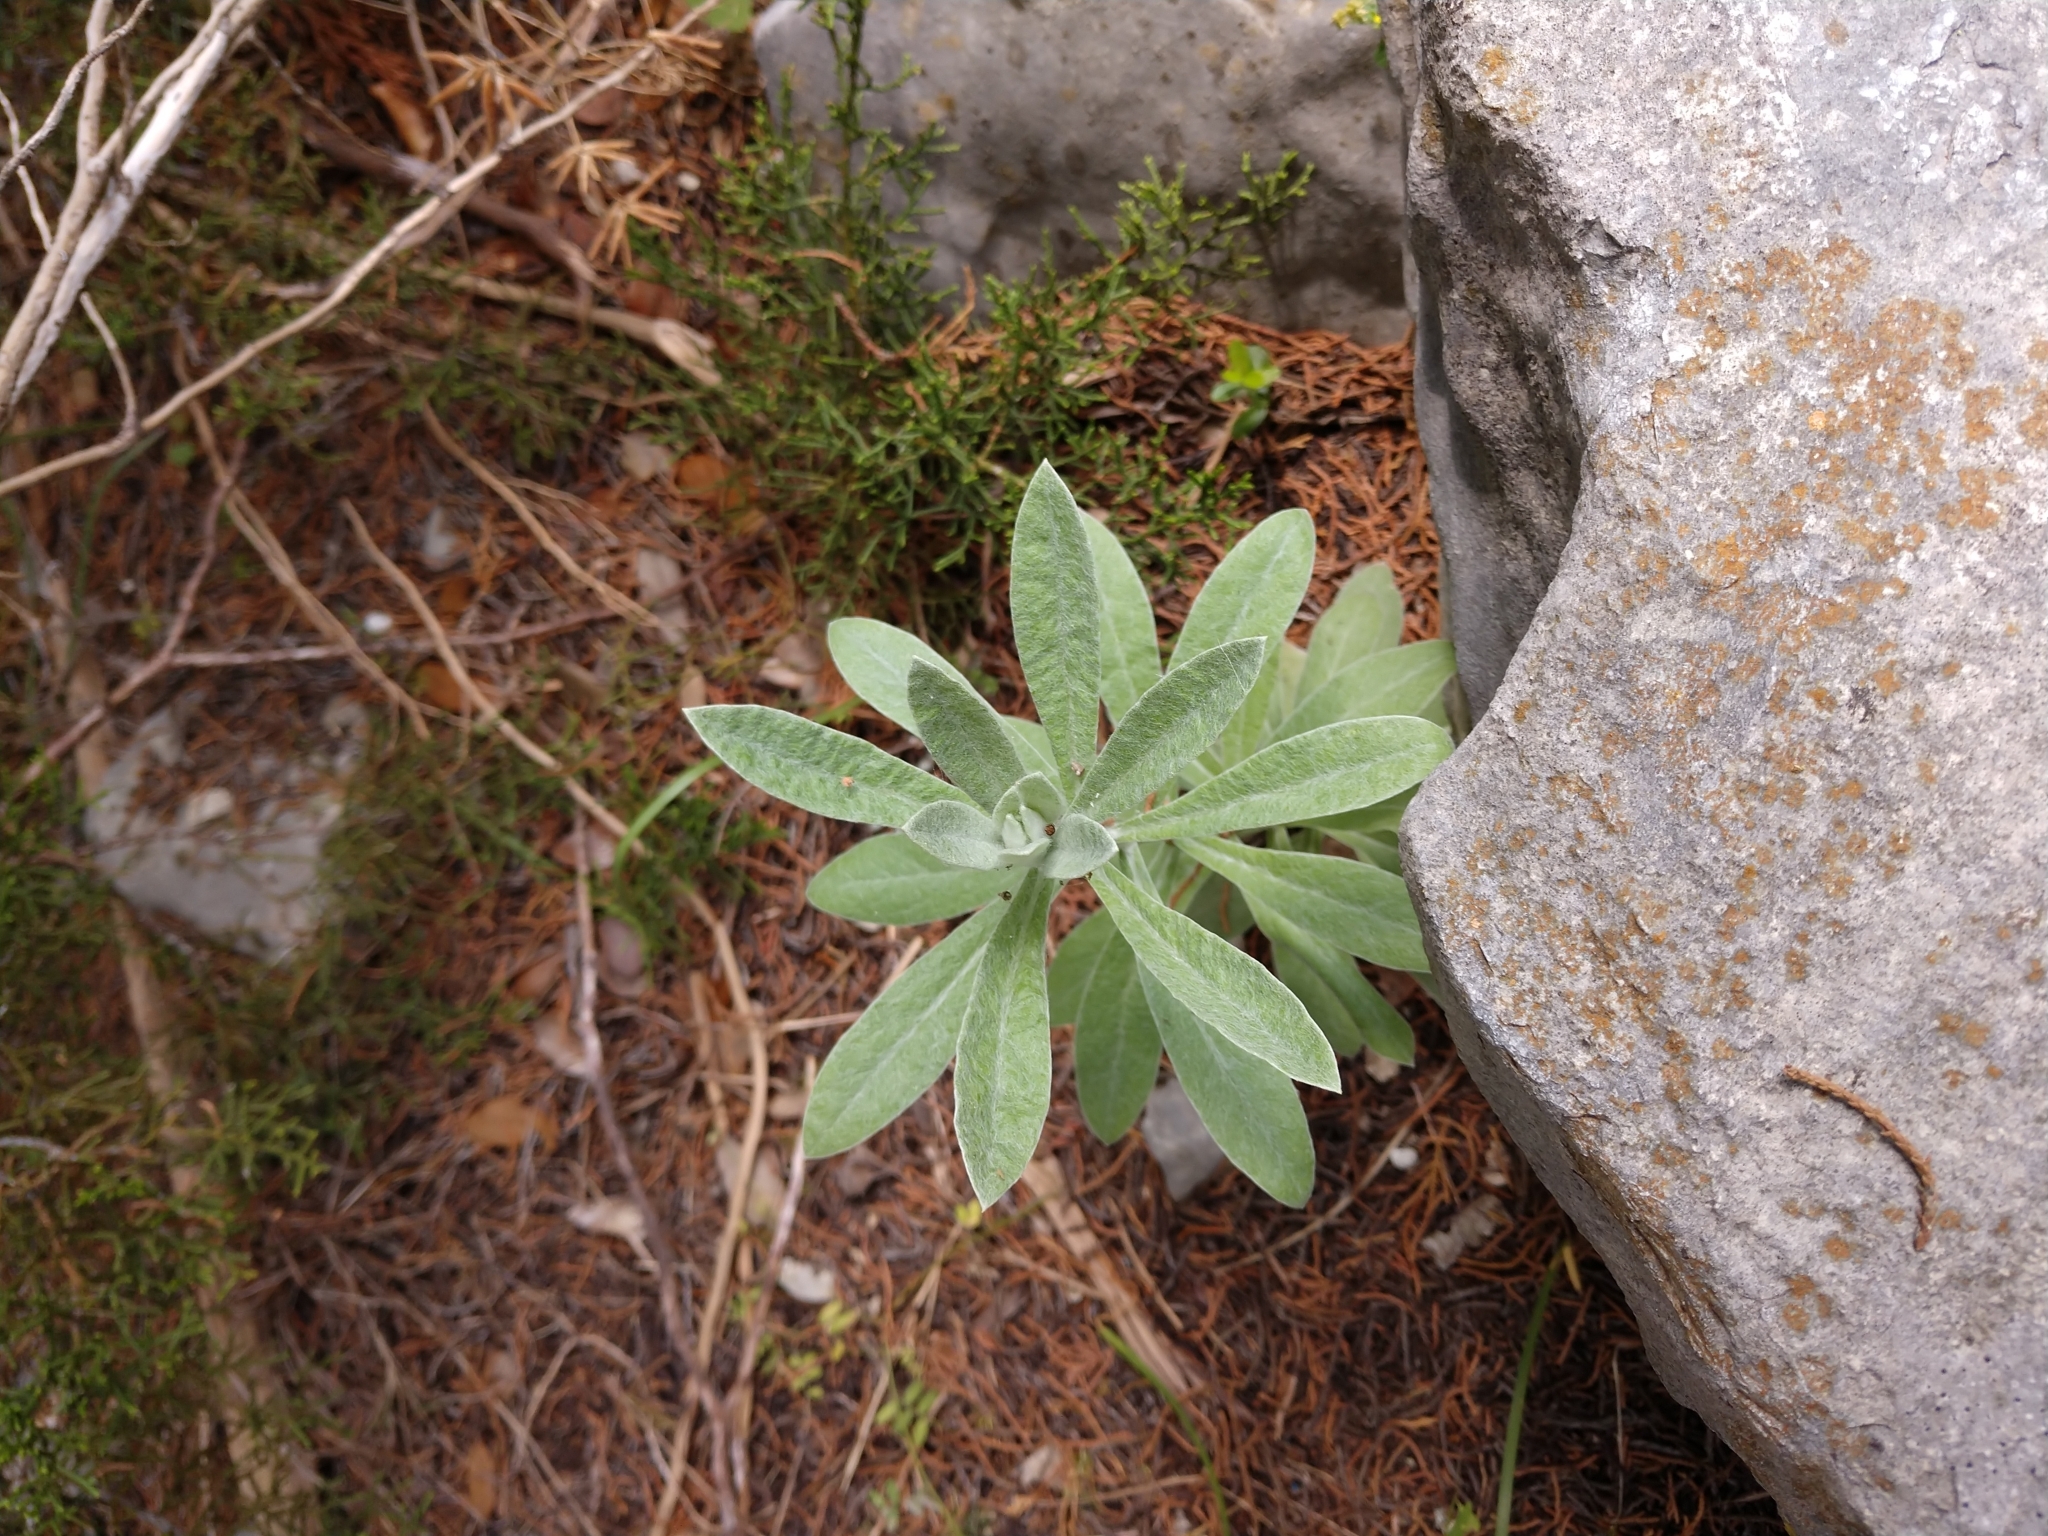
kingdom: Plantae
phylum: Tracheophyta
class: Magnoliopsida
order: Asterales
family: Asteraceae
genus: Pseudognaphalium
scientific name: Pseudognaphalium obtusifolium
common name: Eastern rabbit-tobacco
